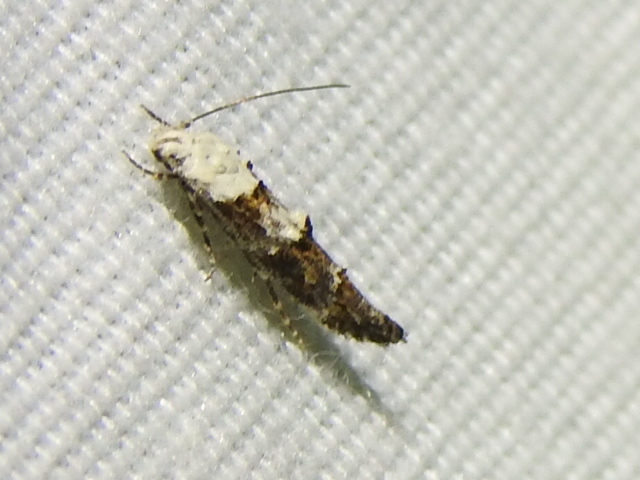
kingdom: Animalia
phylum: Arthropoda
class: Insecta
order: Lepidoptera
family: Momphidae
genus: Mompha
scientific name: Mompha albocapitella
